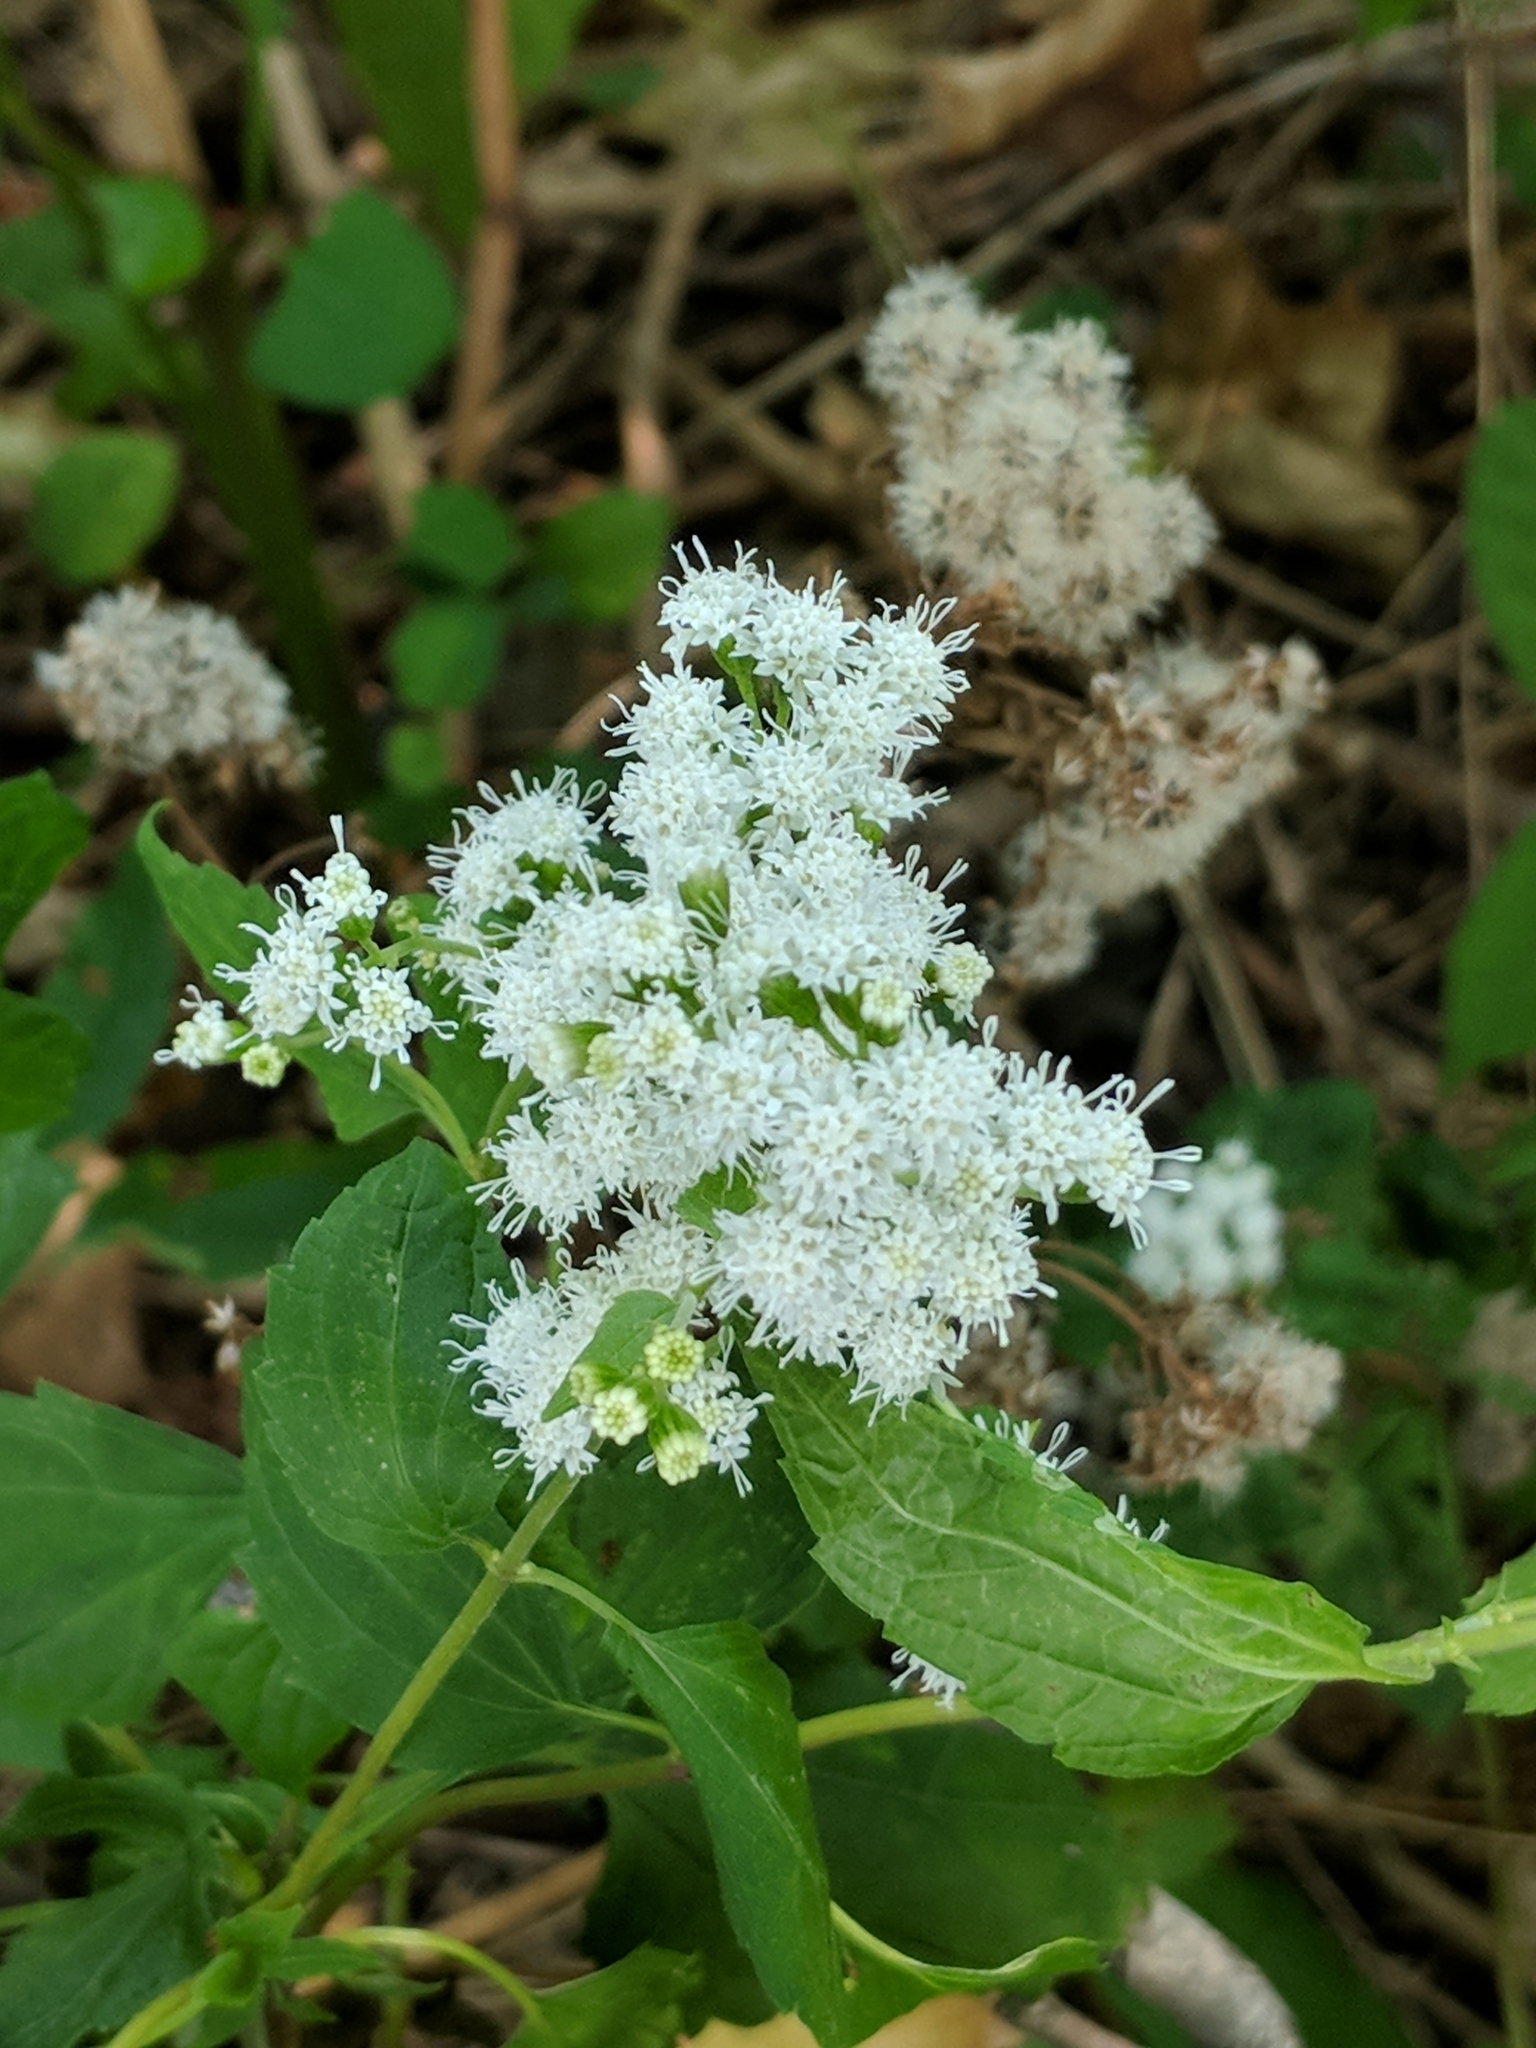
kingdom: Plantae
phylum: Tracheophyta
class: Magnoliopsida
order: Asterales
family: Asteraceae
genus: Ageratina
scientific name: Ageratina altissima
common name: White snakeroot
